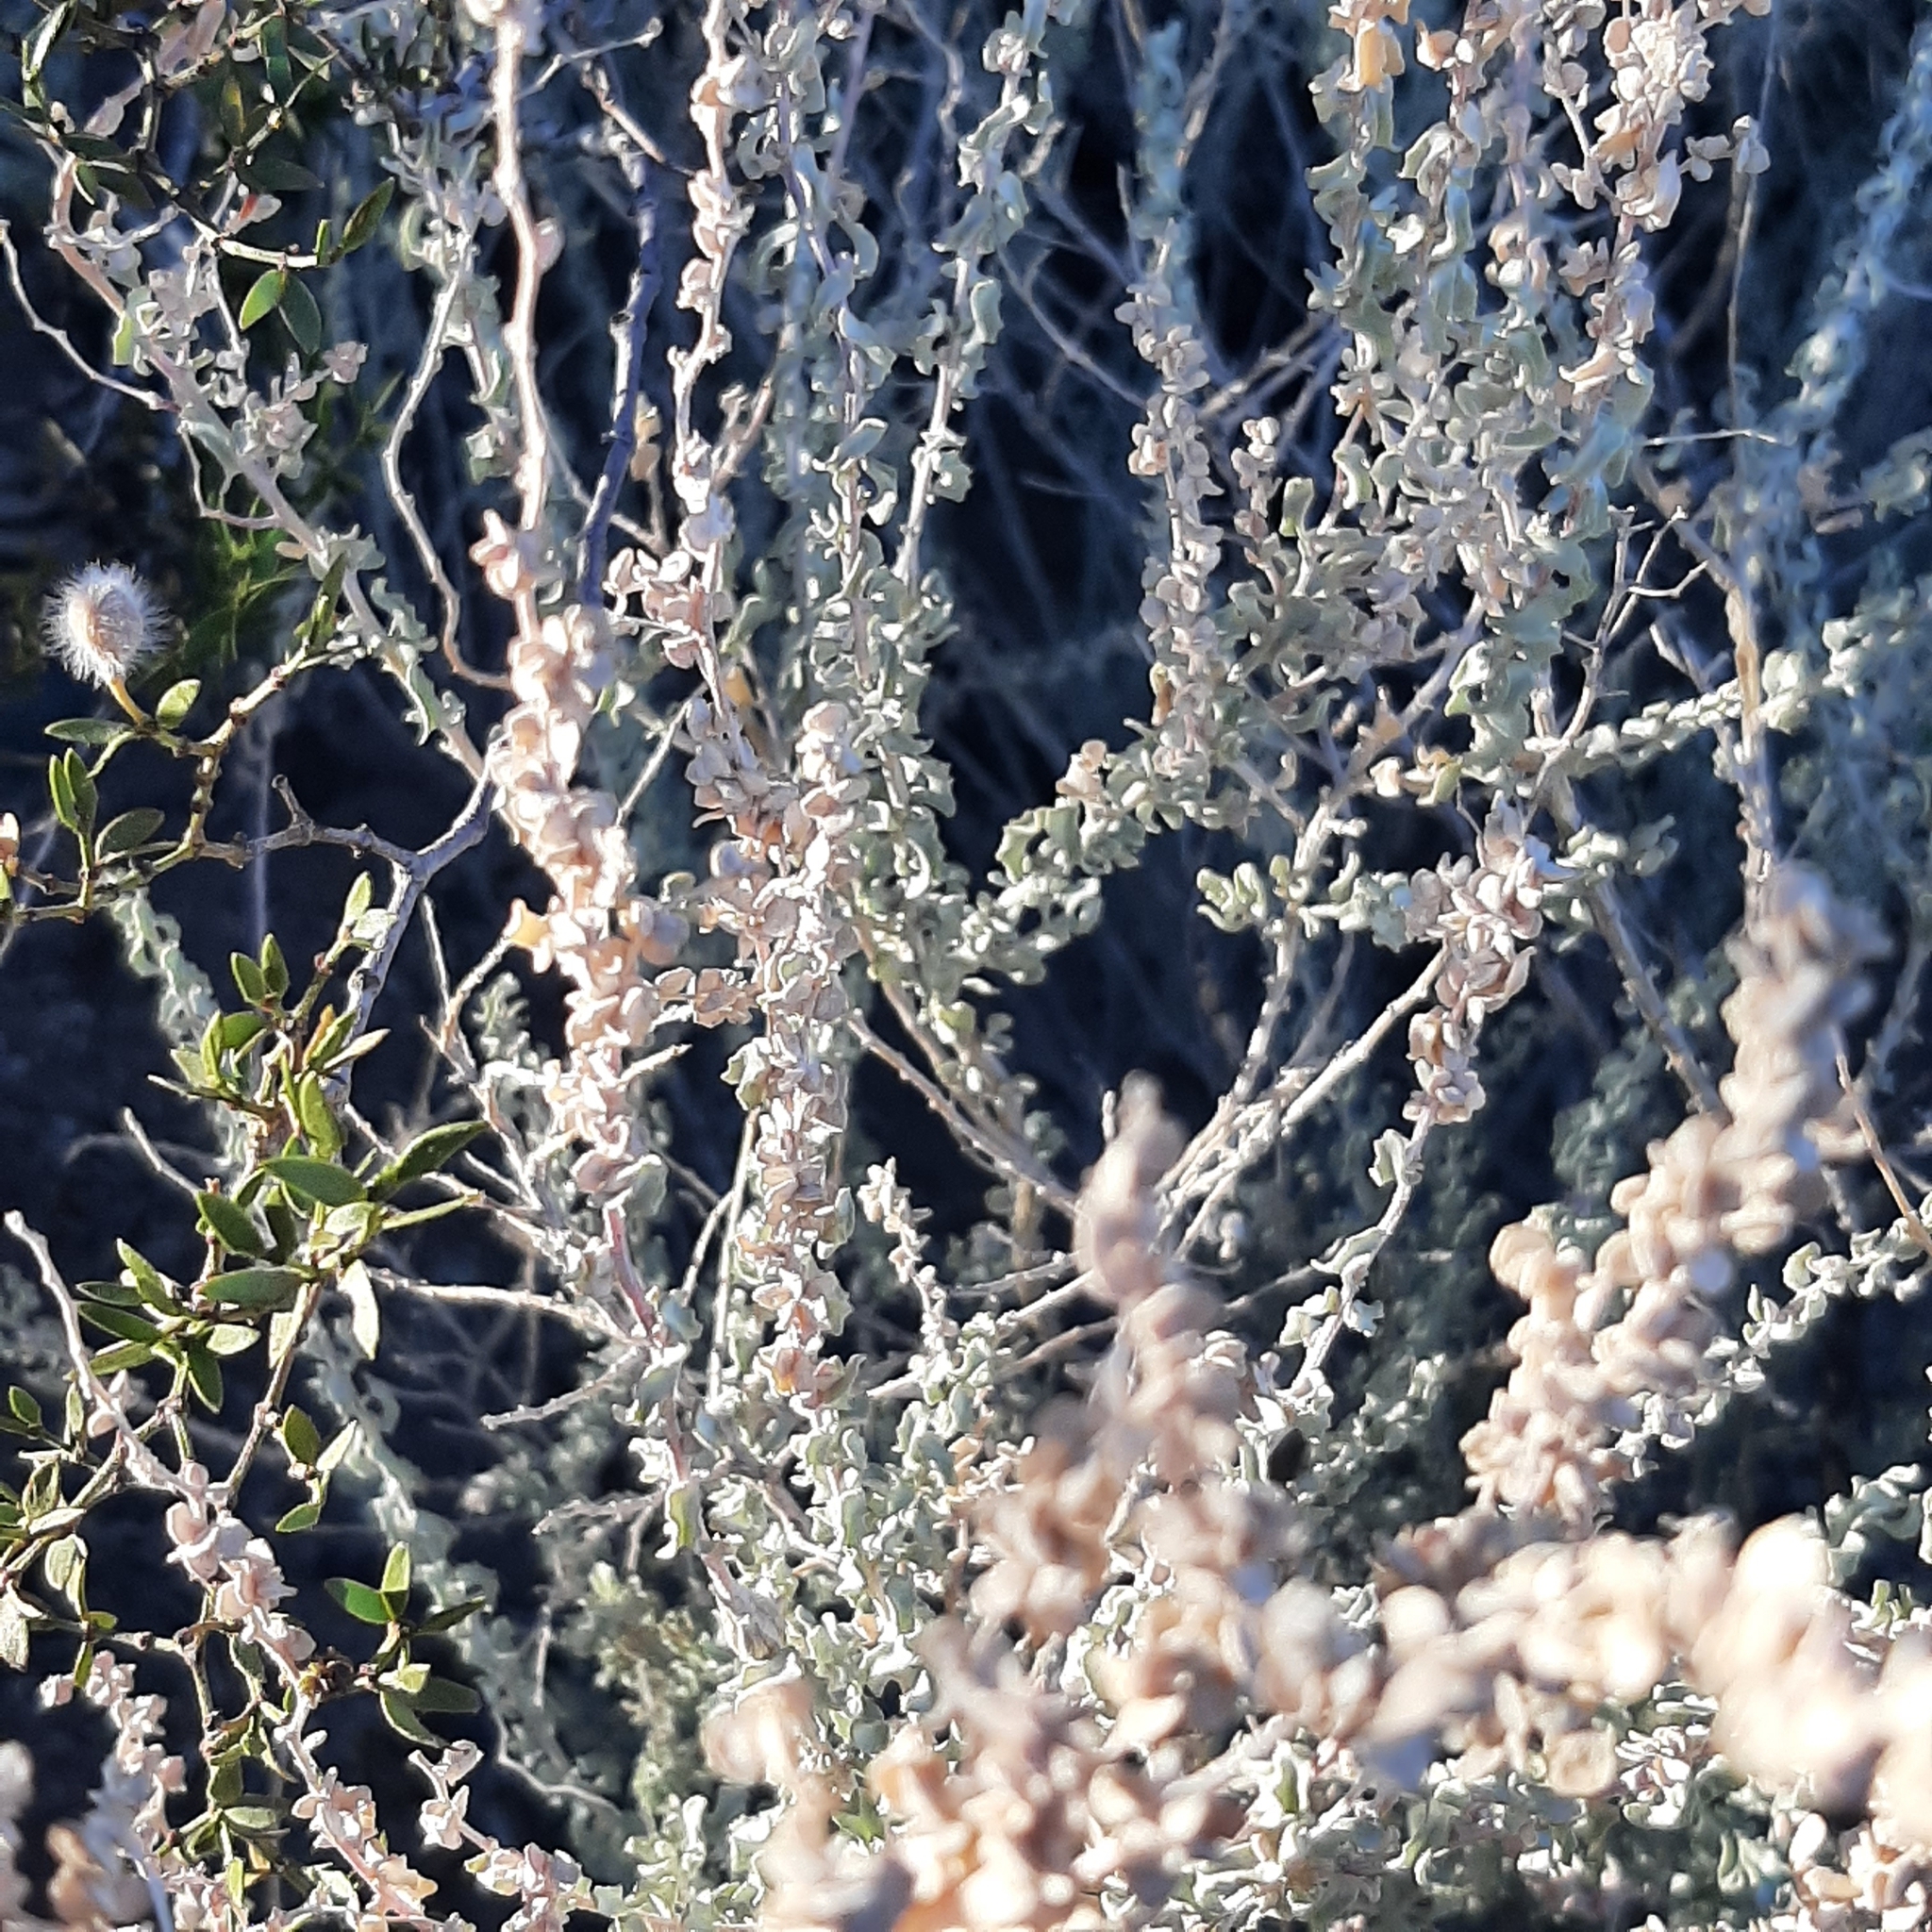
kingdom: Plantae
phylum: Tracheophyta
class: Magnoliopsida
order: Caryophyllales
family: Amaranthaceae
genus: Atriplex
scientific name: Atriplex undulata
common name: Wavy-leaved saltbush
